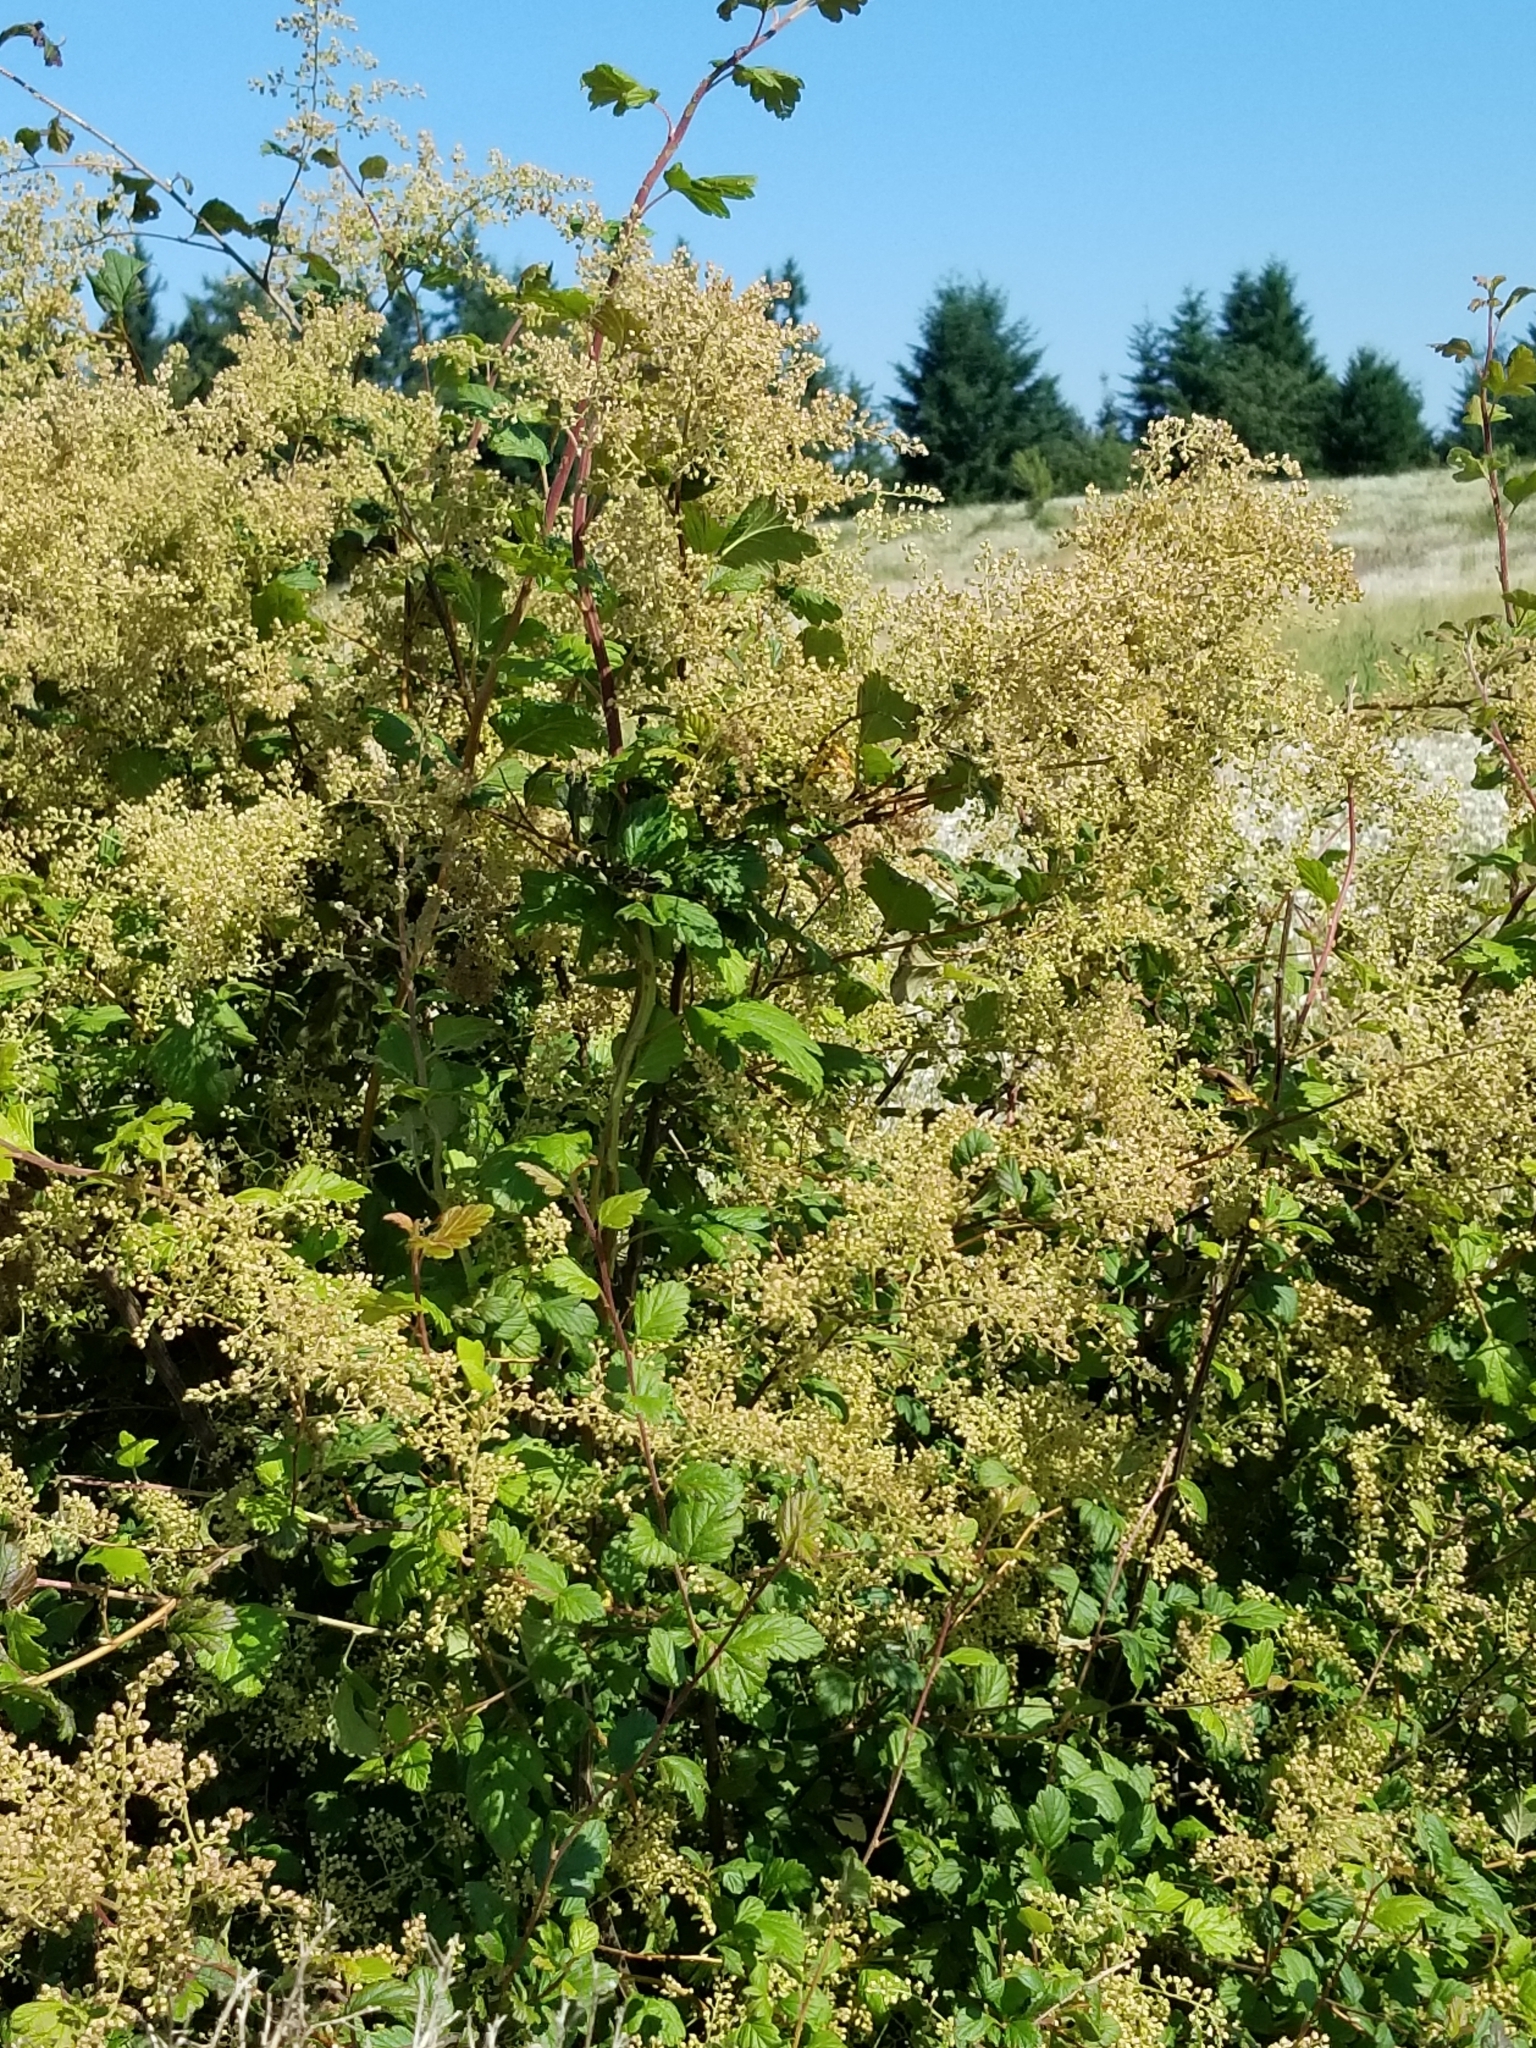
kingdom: Plantae
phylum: Tracheophyta
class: Magnoliopsida
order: Rosales
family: Rosaceae
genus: Holodiscus
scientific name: Holodiscus discolor
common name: Oceanspray
